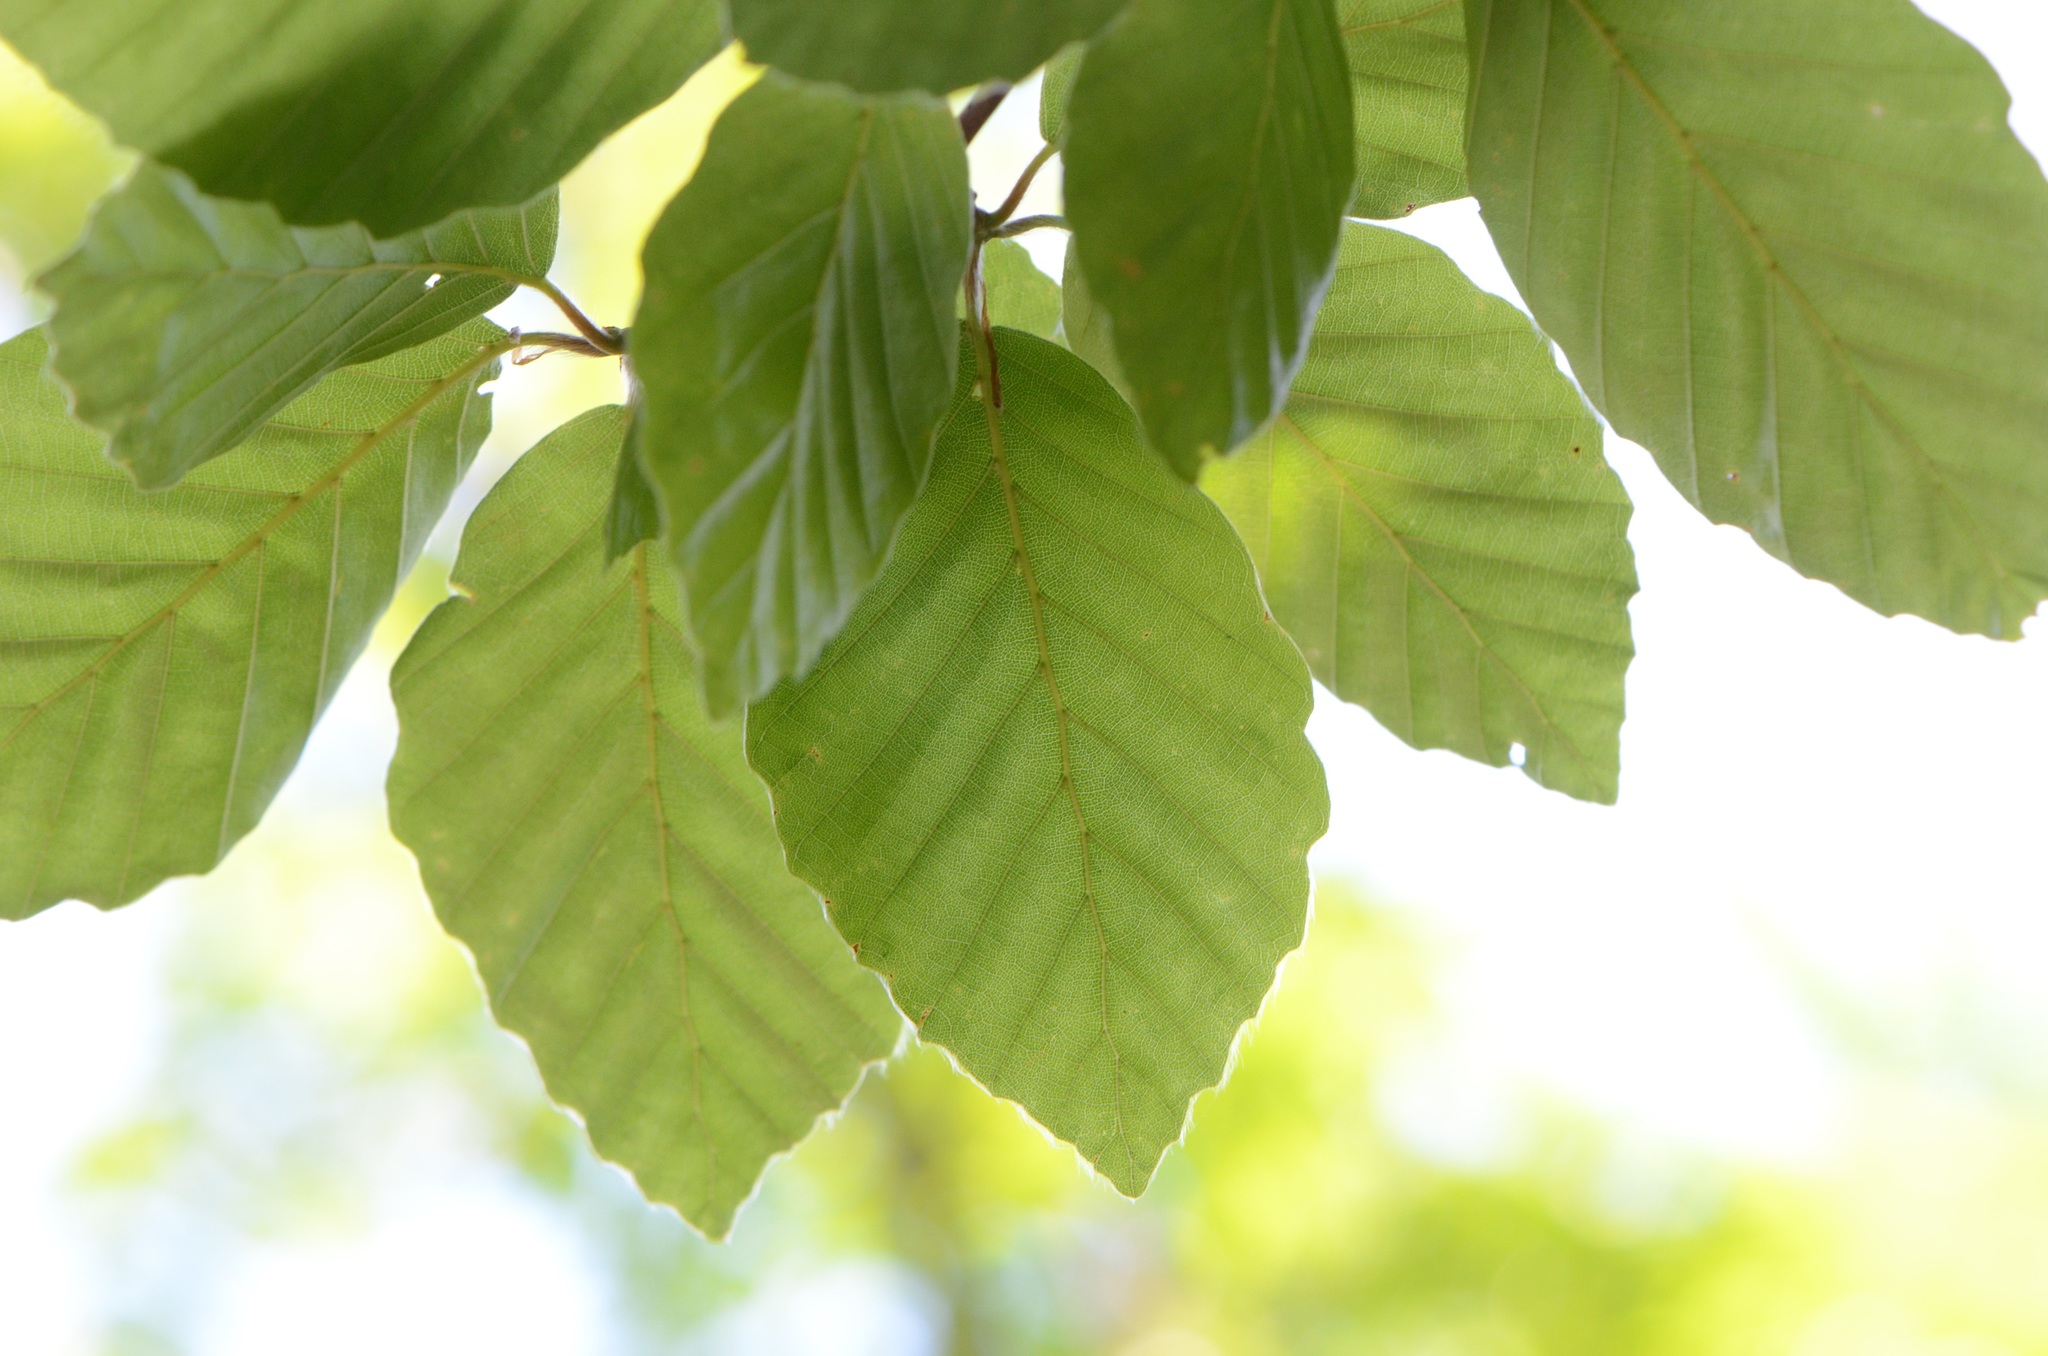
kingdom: Plantae
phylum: Tracheophyta
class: Magnoliopsida
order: Fagales
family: Fagaceae
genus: Fagus
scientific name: Fagus sylvatica
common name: Beech
